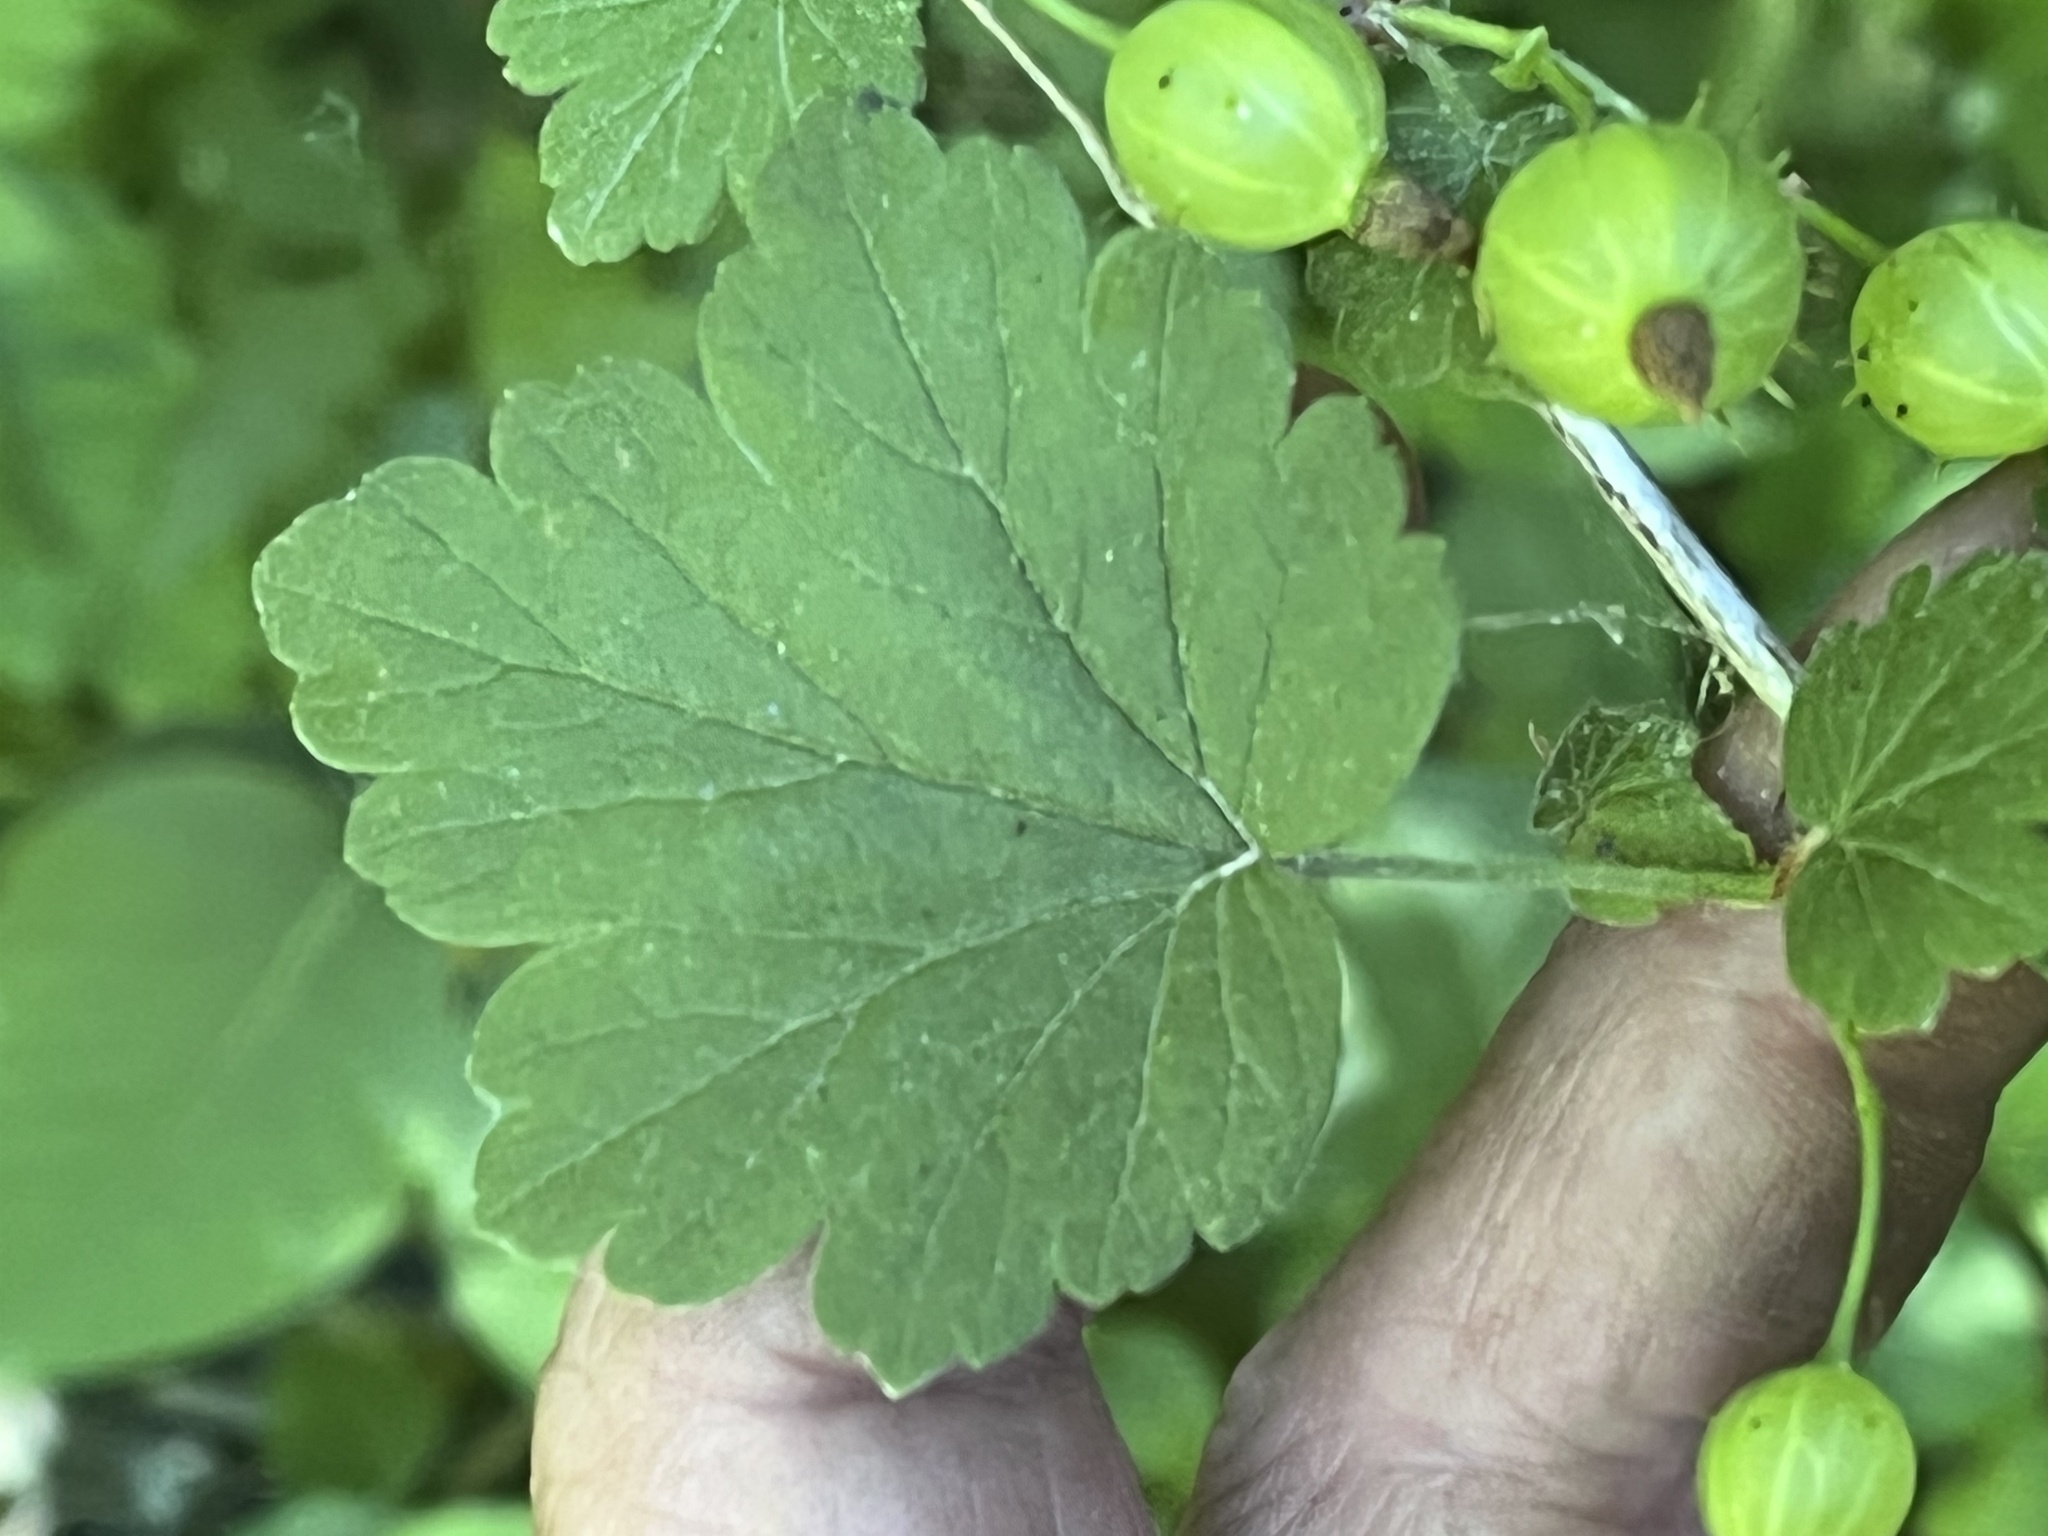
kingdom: Plantae
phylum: Tracheophyta
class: Magnoliopsida
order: Saxifragales
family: Grossulariaceae
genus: Ribes
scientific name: Ribes cynosbati
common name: American gooseberry
